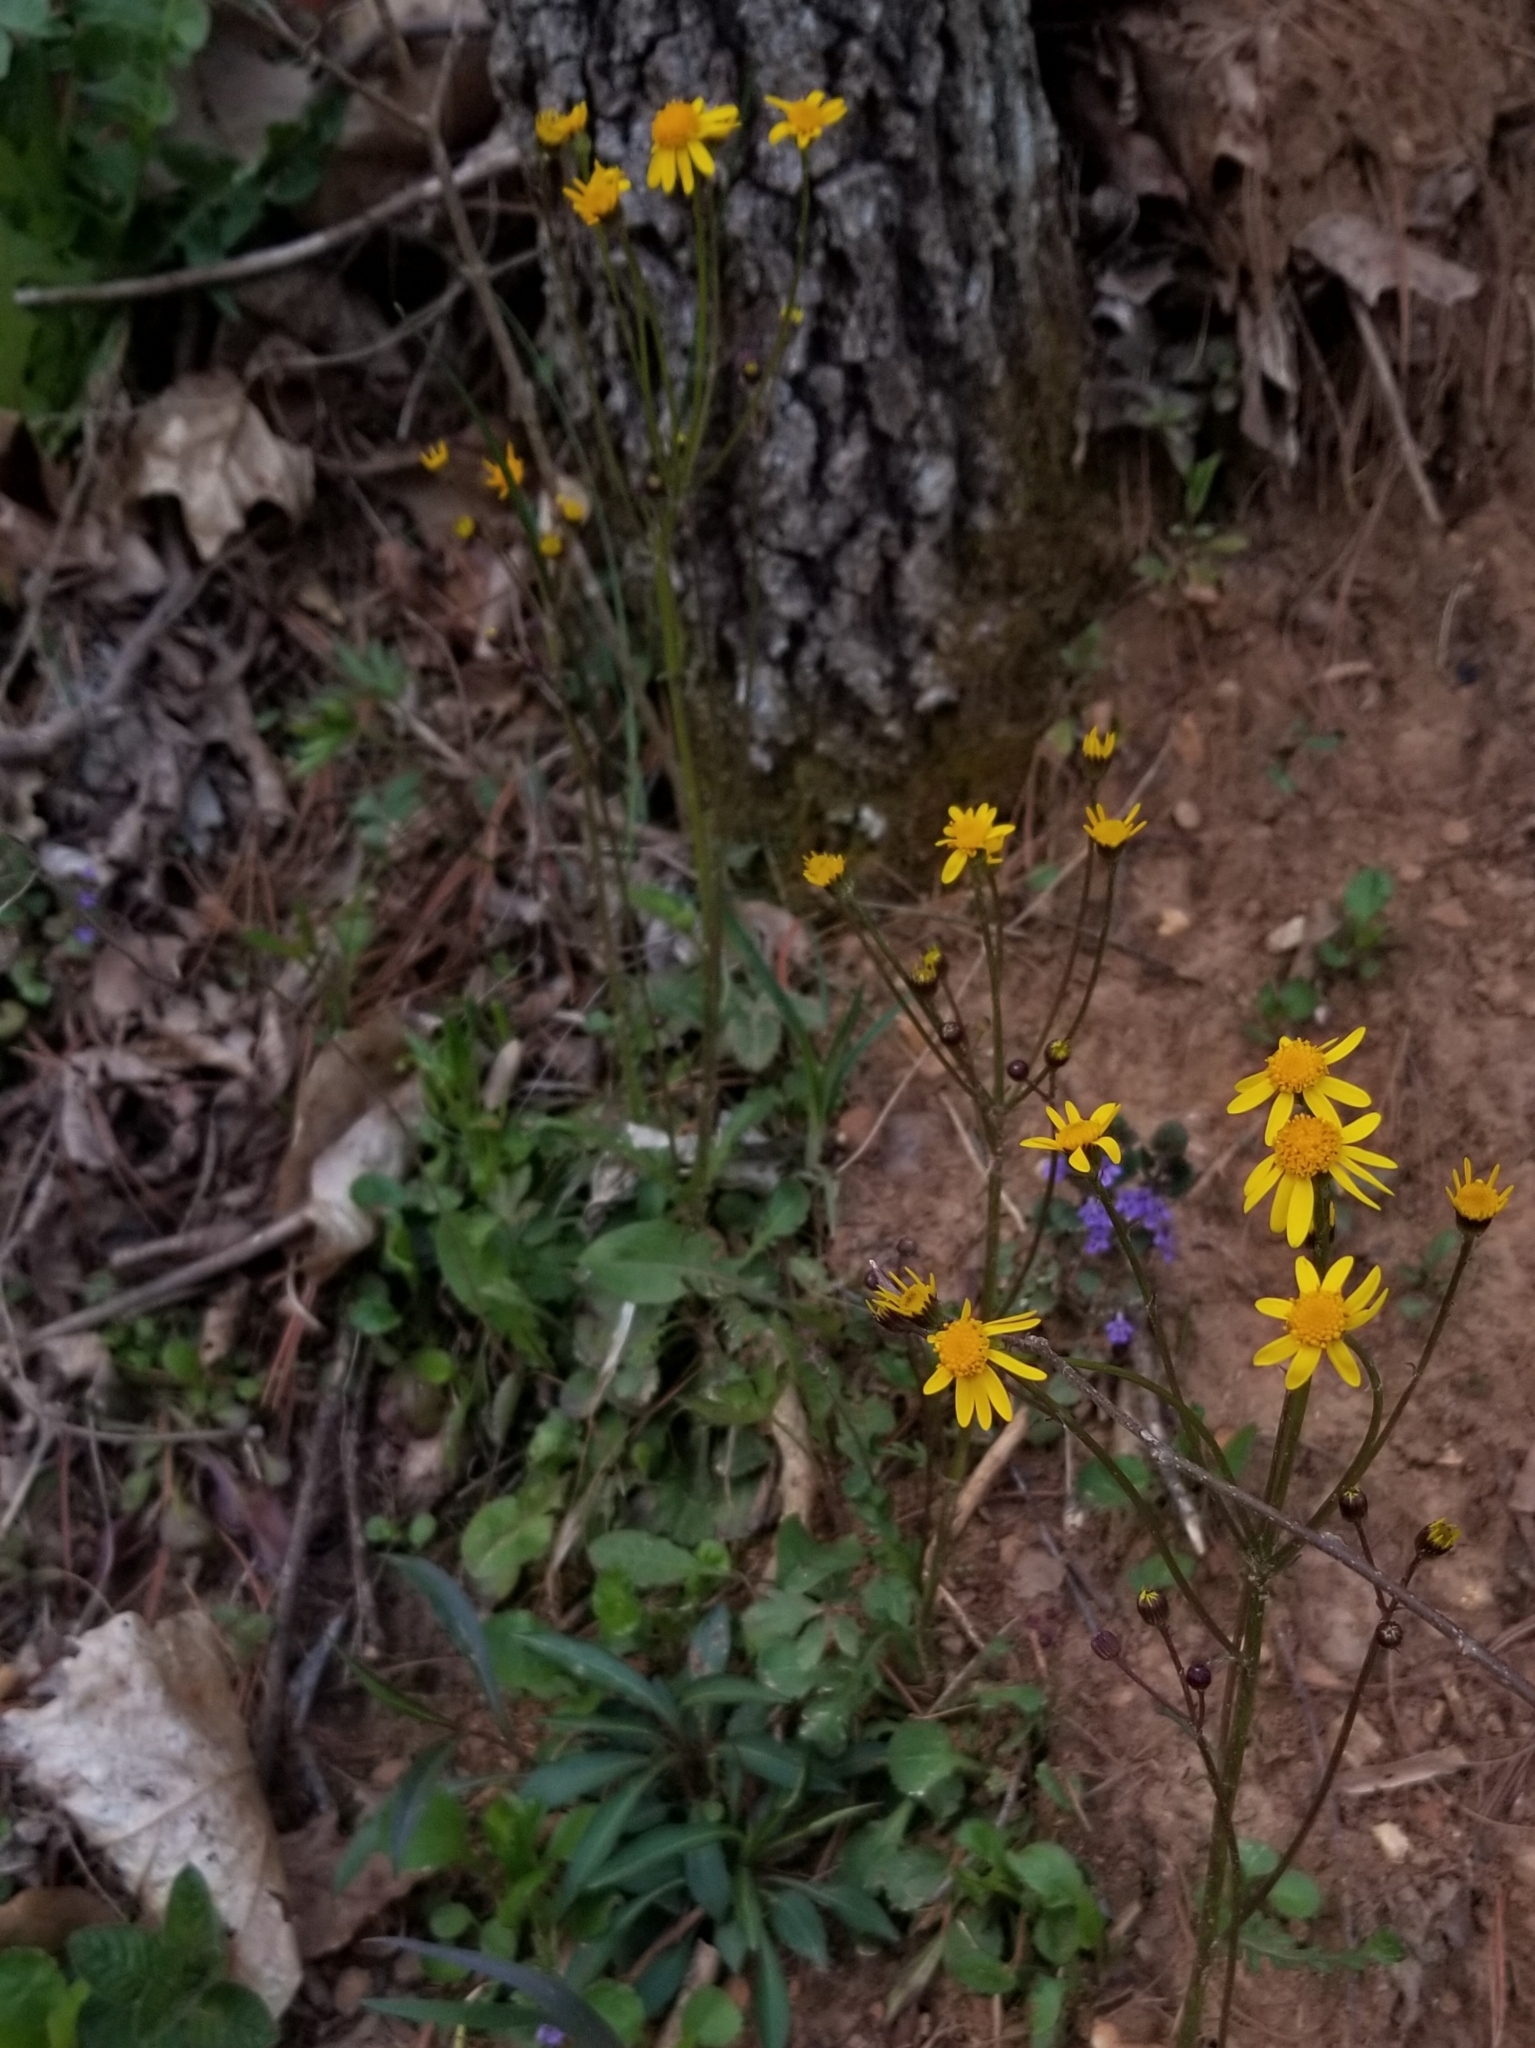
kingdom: Plantae
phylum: Tracheophyta
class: Magnoliopsida
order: Asterales
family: Asteraceae
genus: Packera
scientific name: Packera obovata
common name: Round-leaf ragwort
